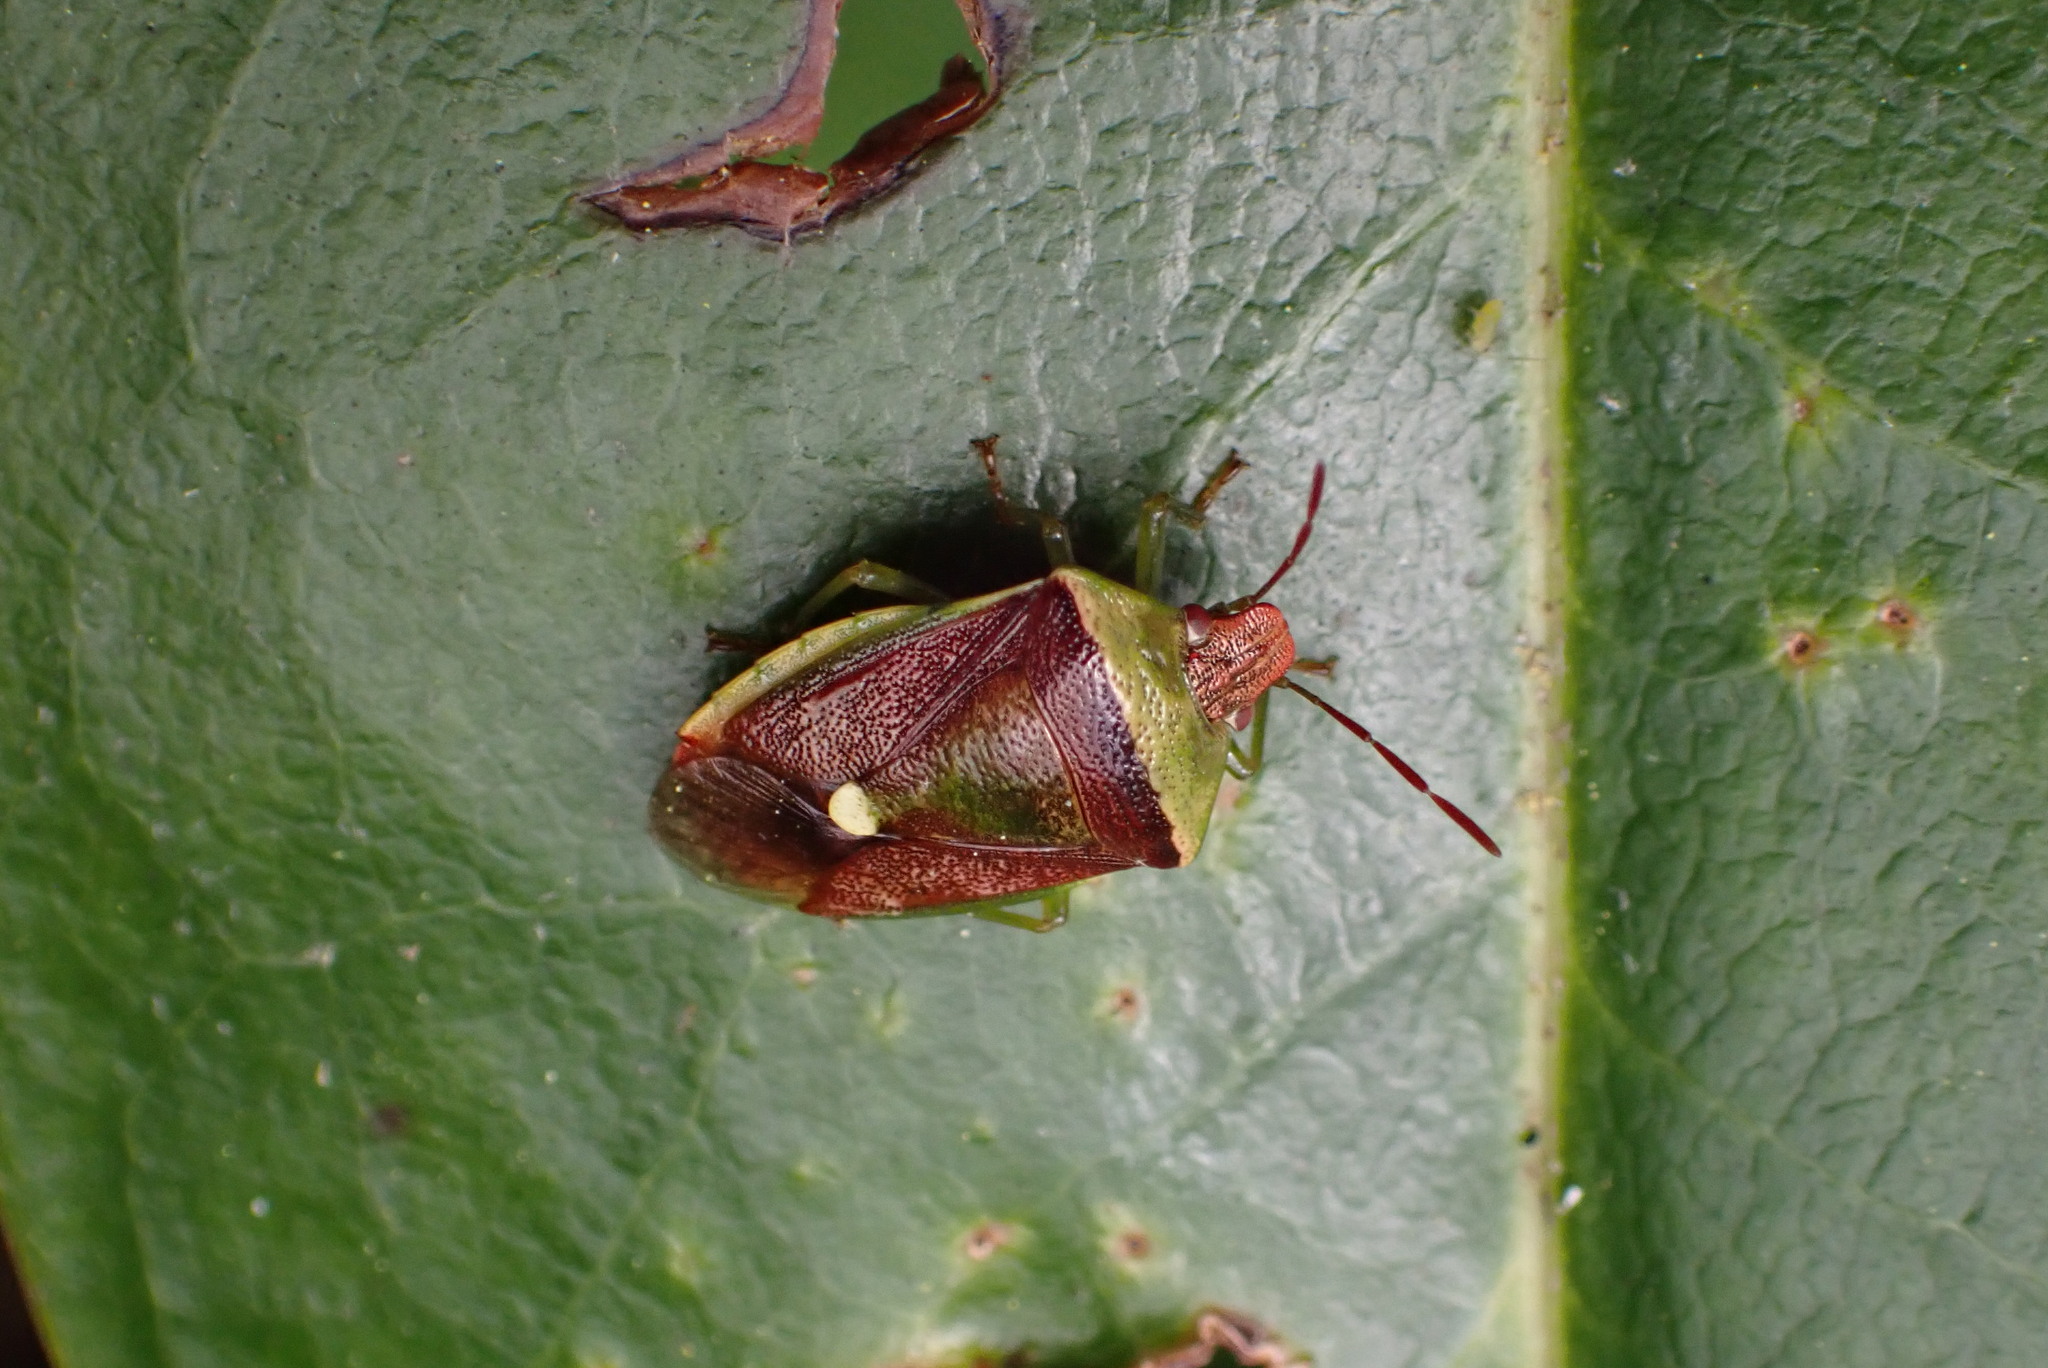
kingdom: Animalia
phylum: Arthropoda
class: Insecta
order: Hemiptera
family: Pentatomidae
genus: Banasa
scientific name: Banasa
